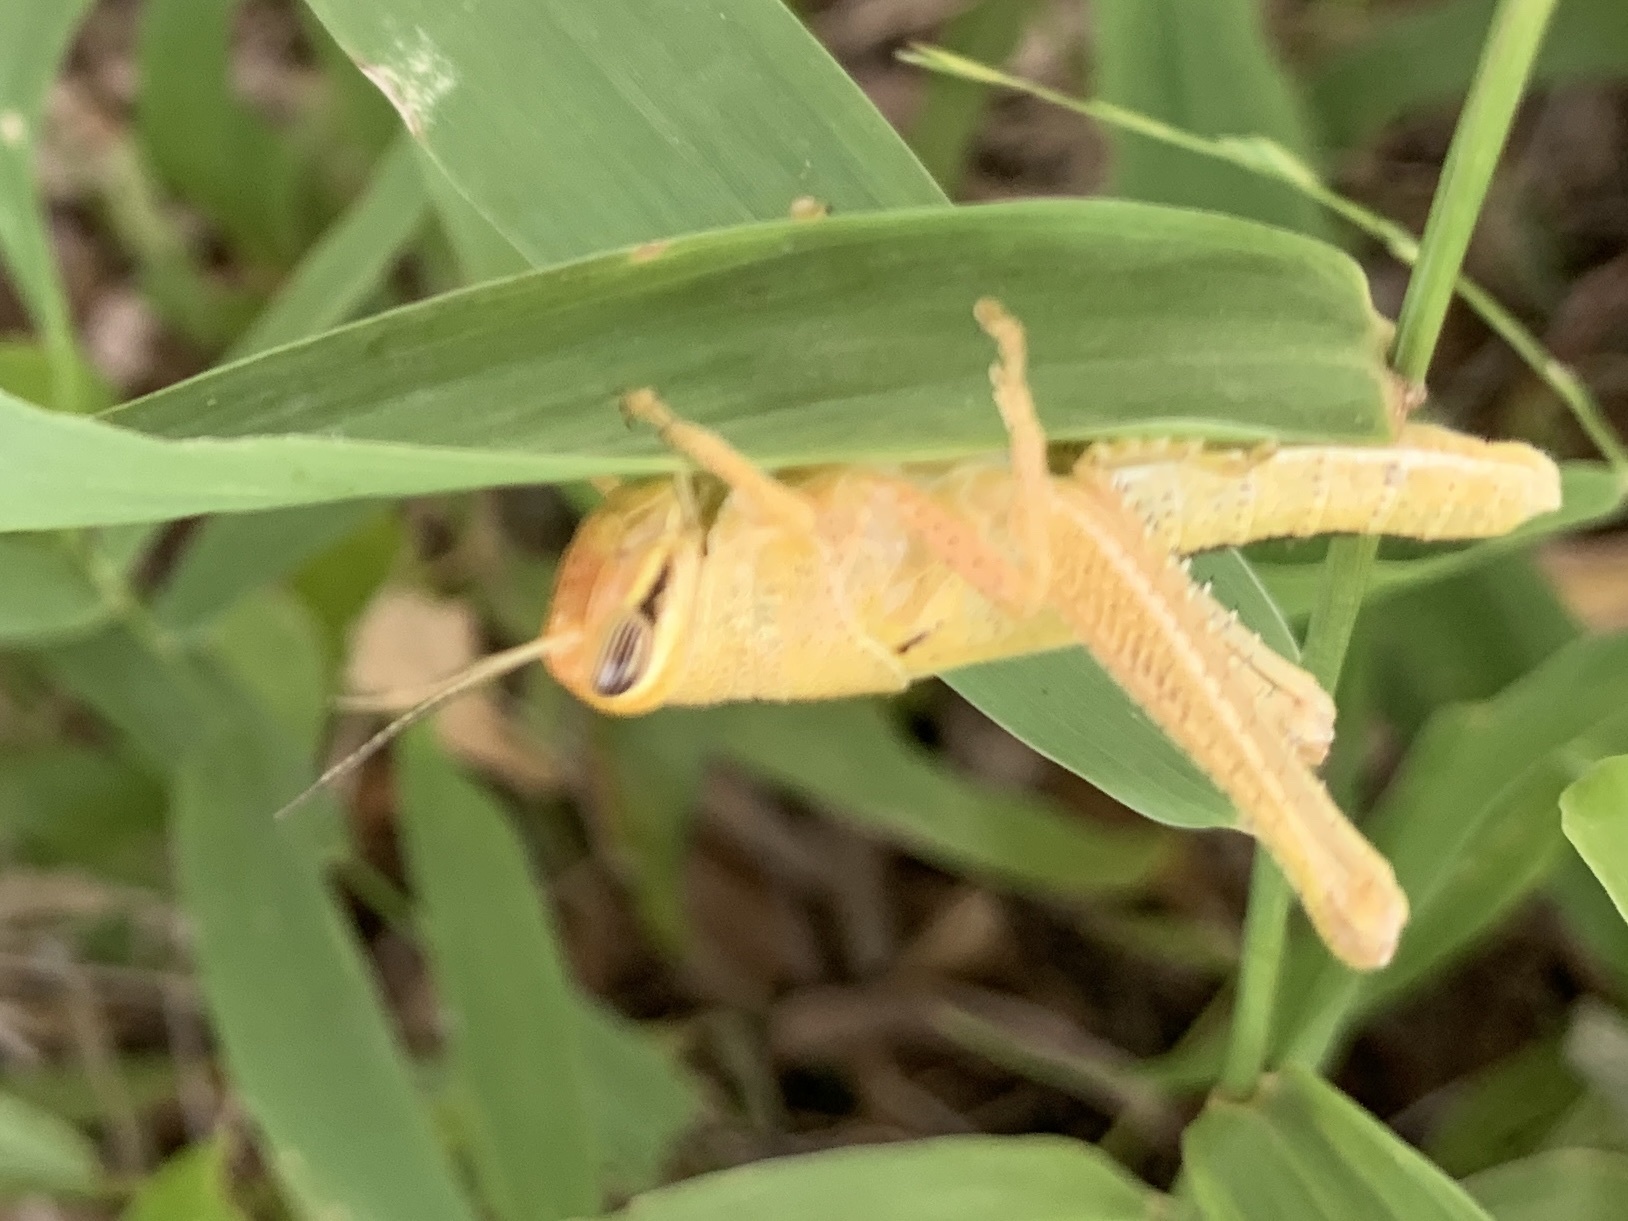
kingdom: Animalia
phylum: Arthropoda
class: Insecta
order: Orthoptera
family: Acrididae
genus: Schistocerca
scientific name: Schistocerca americana
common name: American bird locust
